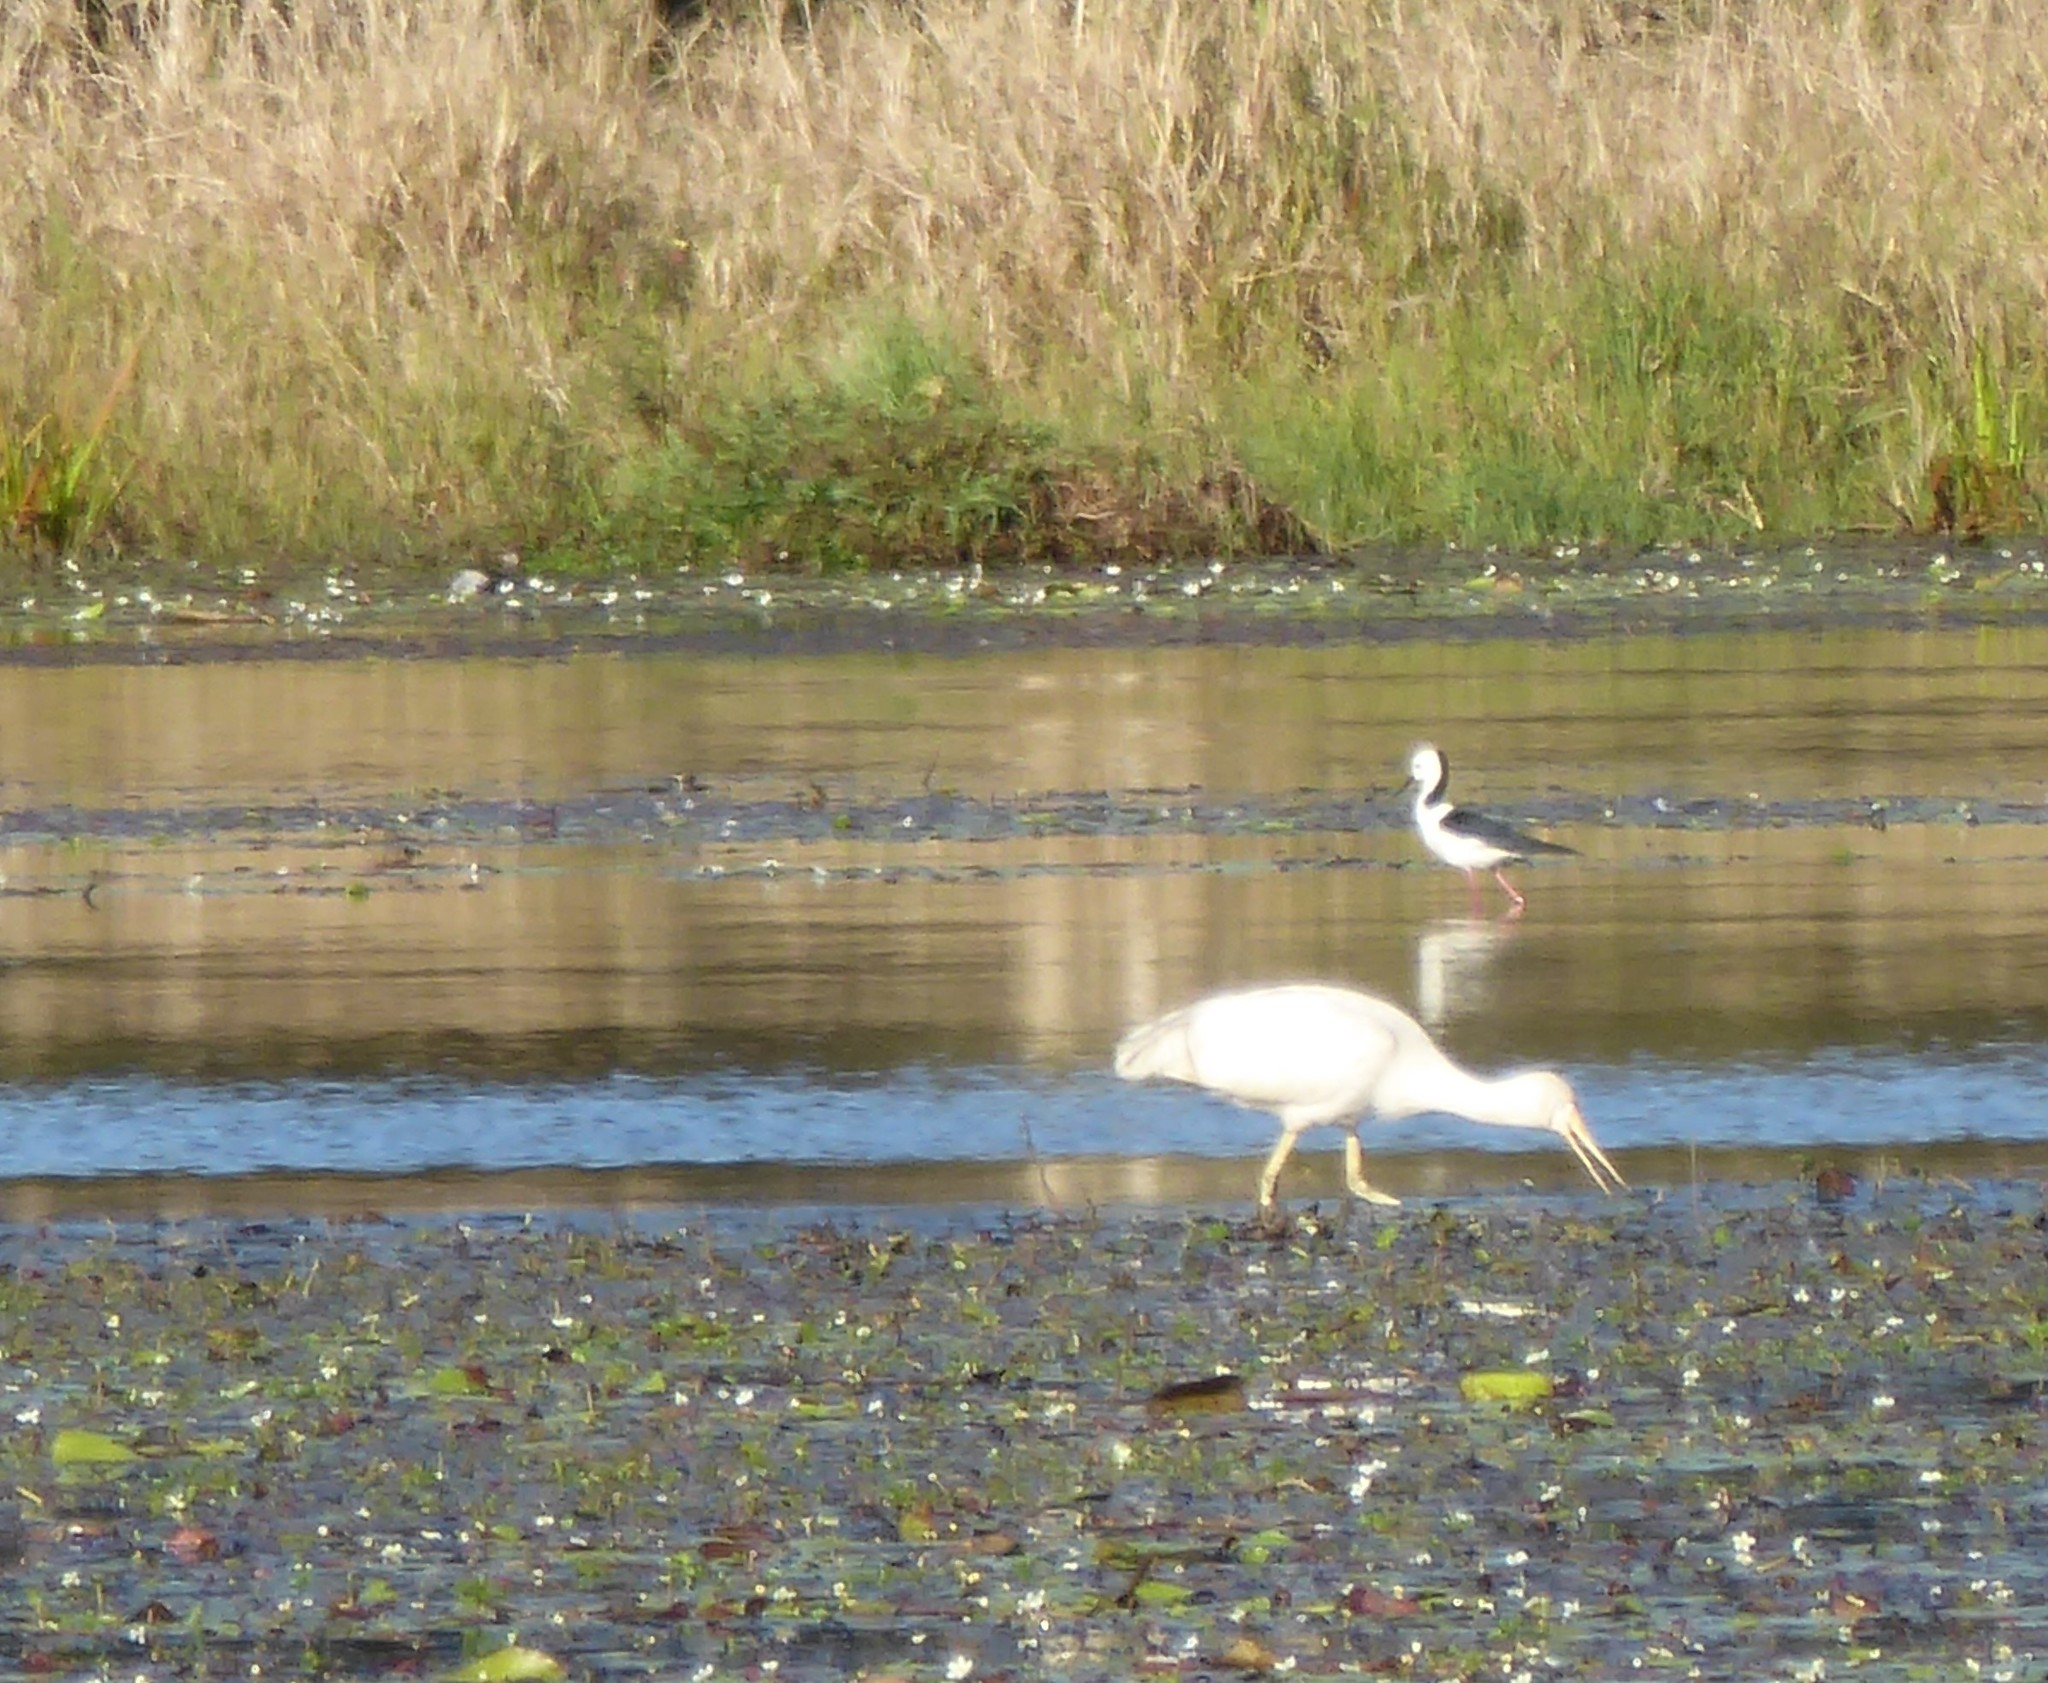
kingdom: Animalia
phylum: Chordata
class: Aves
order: Charadriiformes
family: Recurvirostridae
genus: Himantopus
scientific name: Himantopus leucocephalus
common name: White-headed stilt
